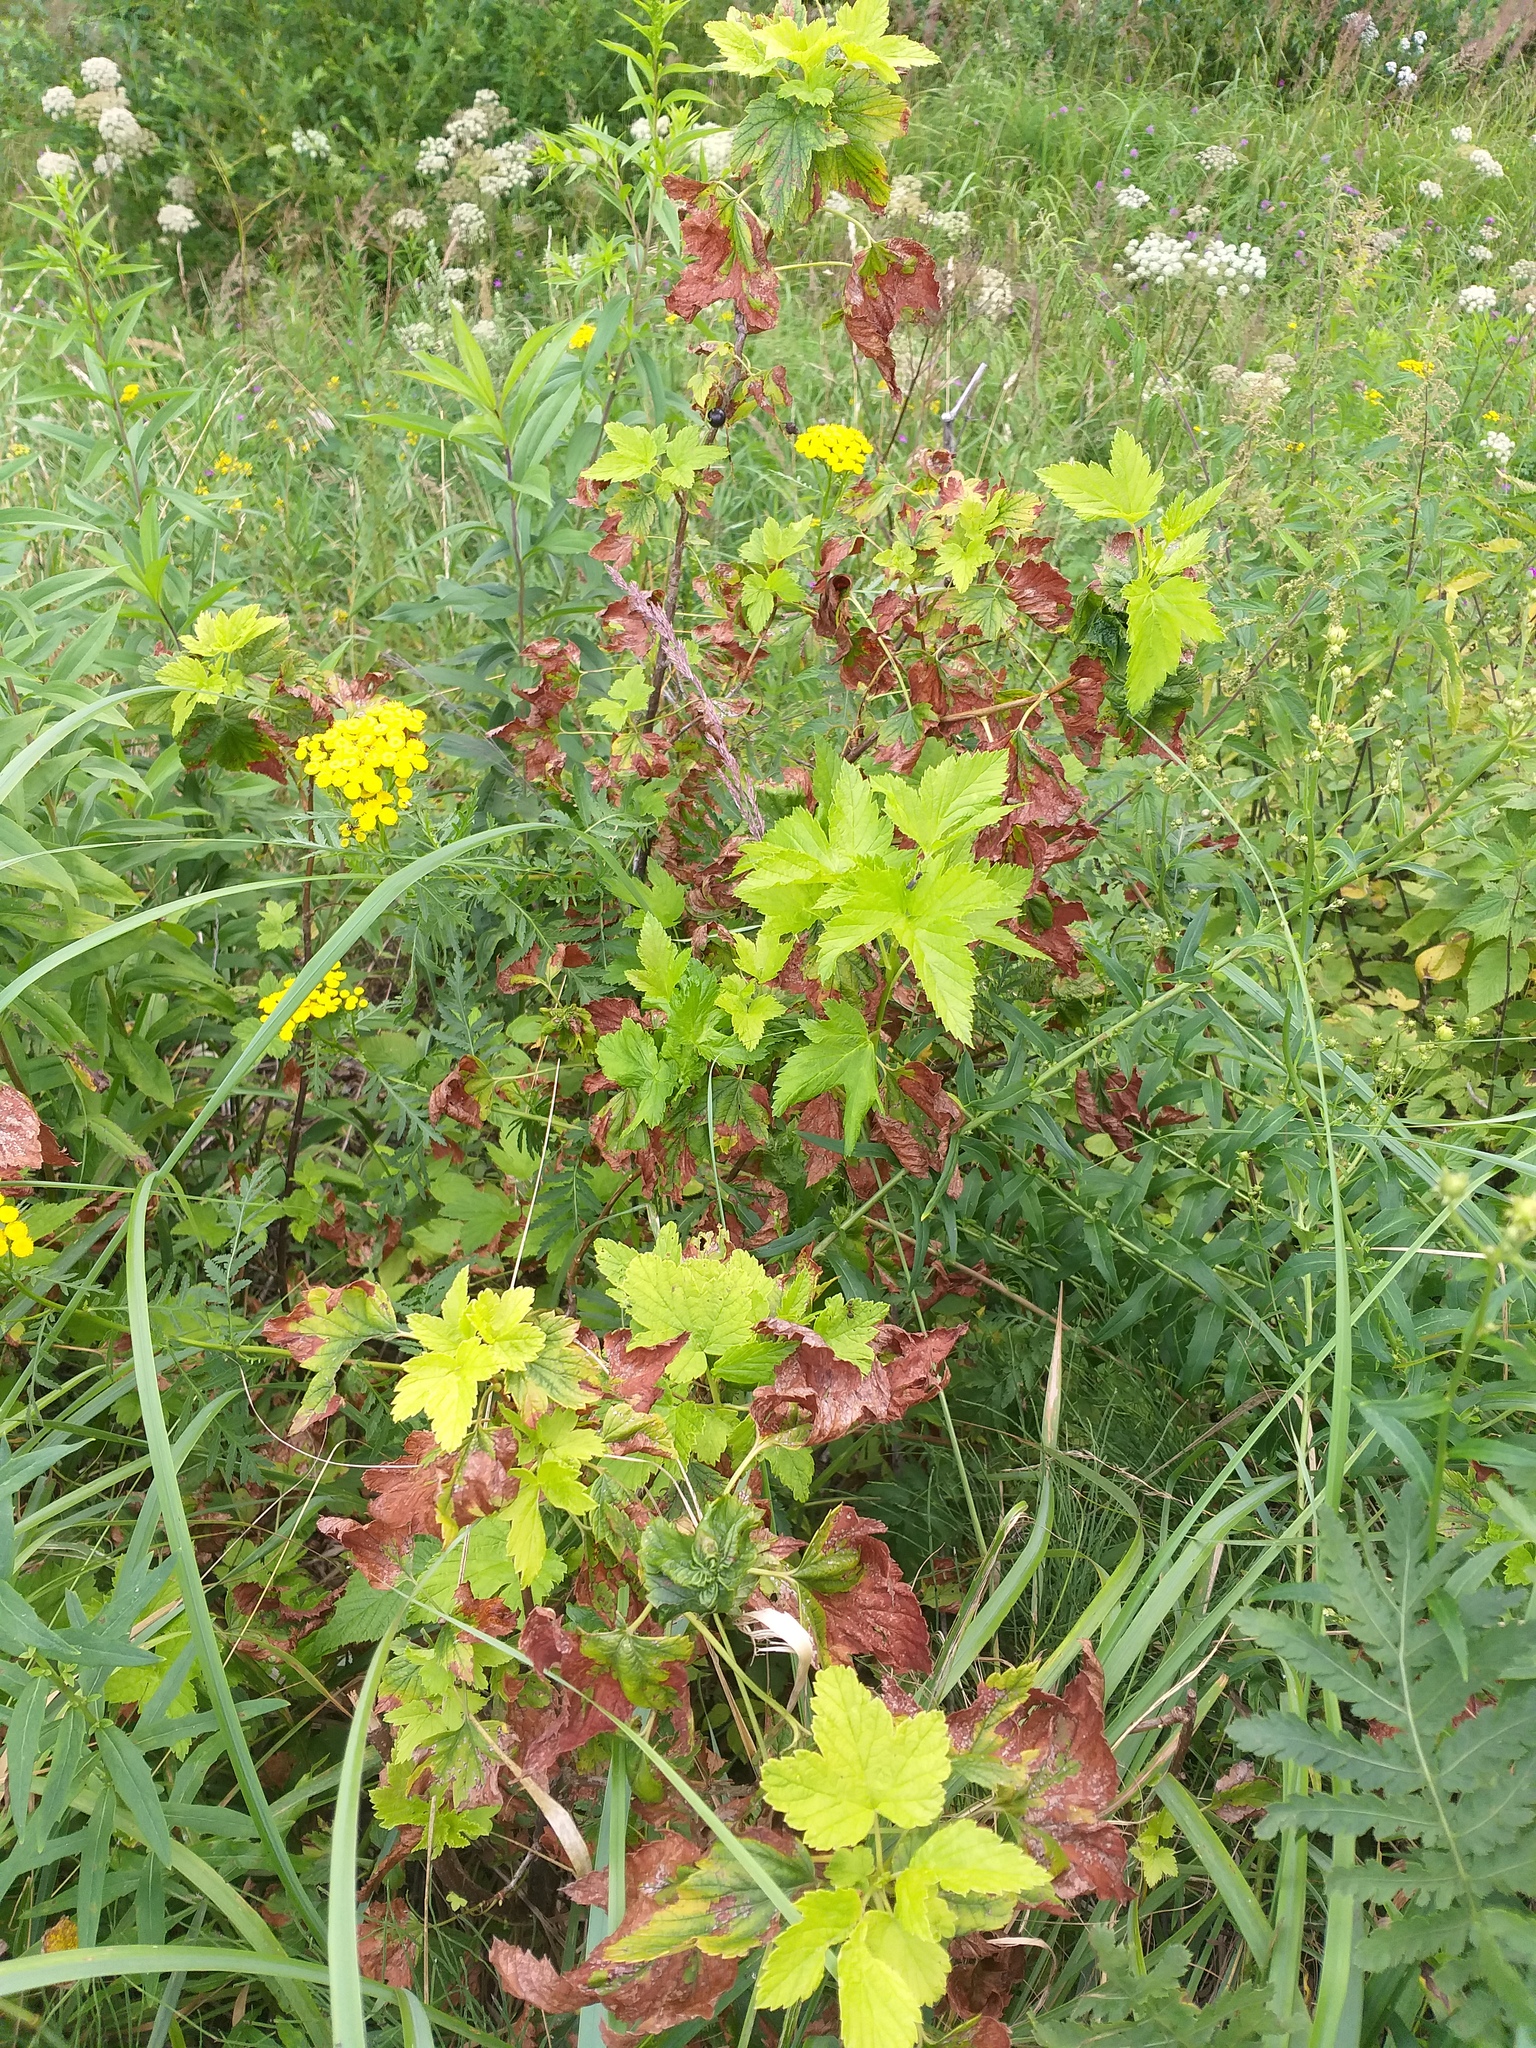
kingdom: Plantae
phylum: Tracheophyta
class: Magnoliopsida
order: Saxifragales
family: Grossulariaceae
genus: Ribes
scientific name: Ribes nigrum
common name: Black currant
